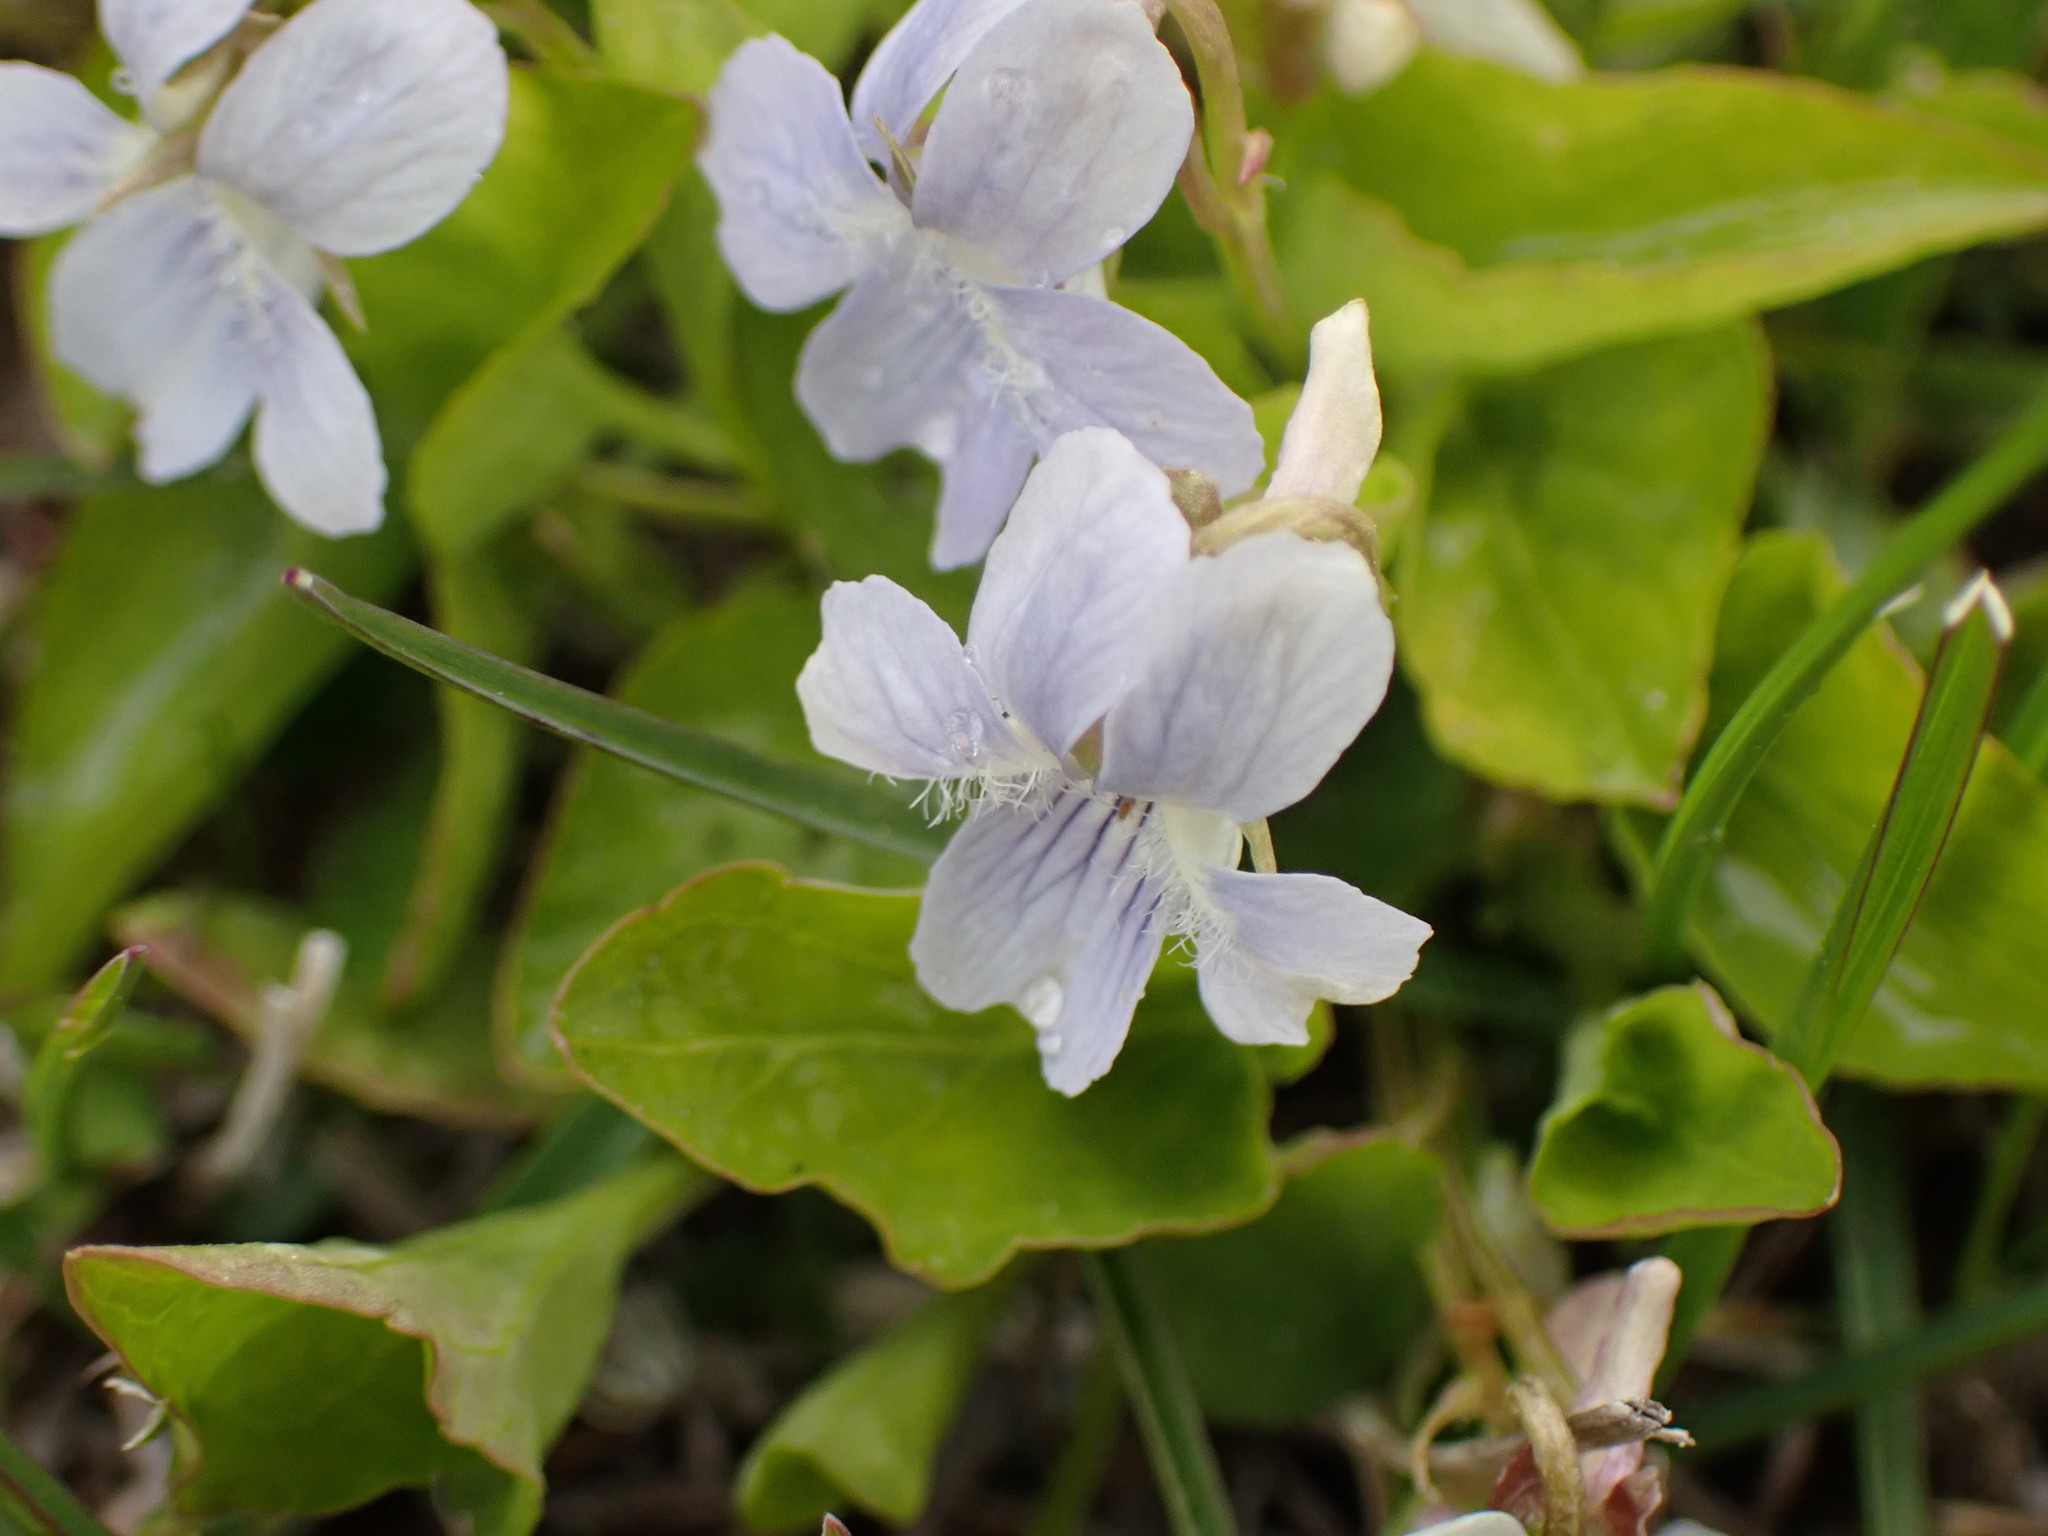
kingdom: Plantae
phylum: Tracheophyta
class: Magnoliopsida
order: Malpighiales
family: Violaceae
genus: Viola
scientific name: Viola adunca
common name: Sand violet
